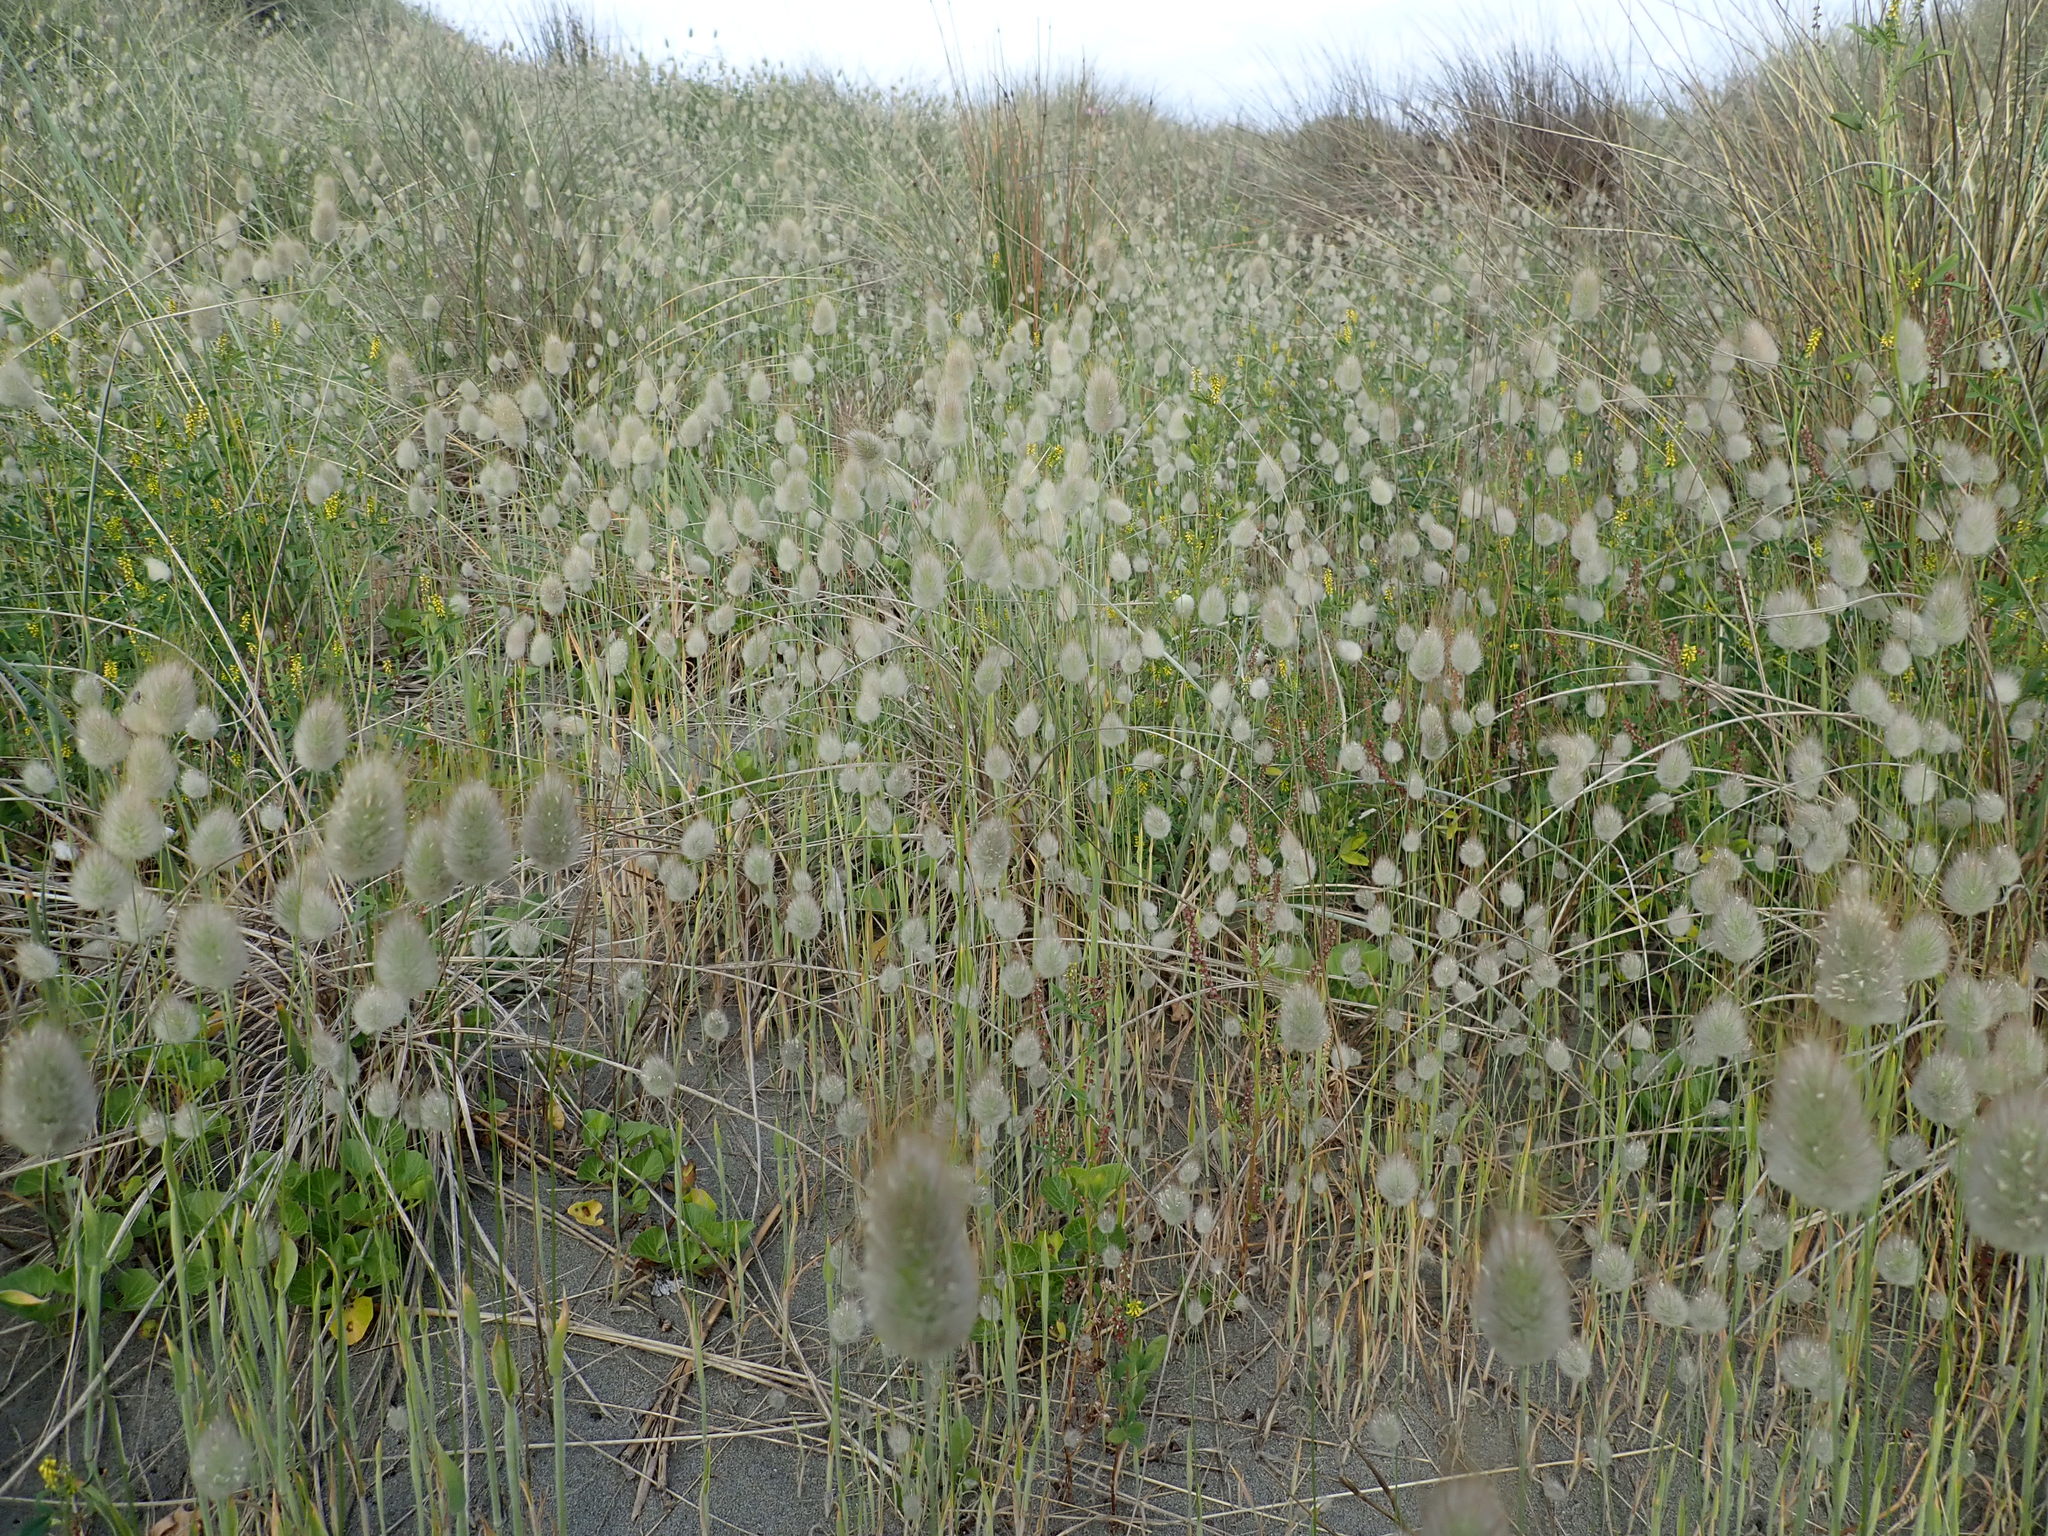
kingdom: Plantae
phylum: Tracheophyta
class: Liliopsida
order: Poales
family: Poaceae
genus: Lagurus
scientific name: Lagurus ovatus
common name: Hare's-tail
